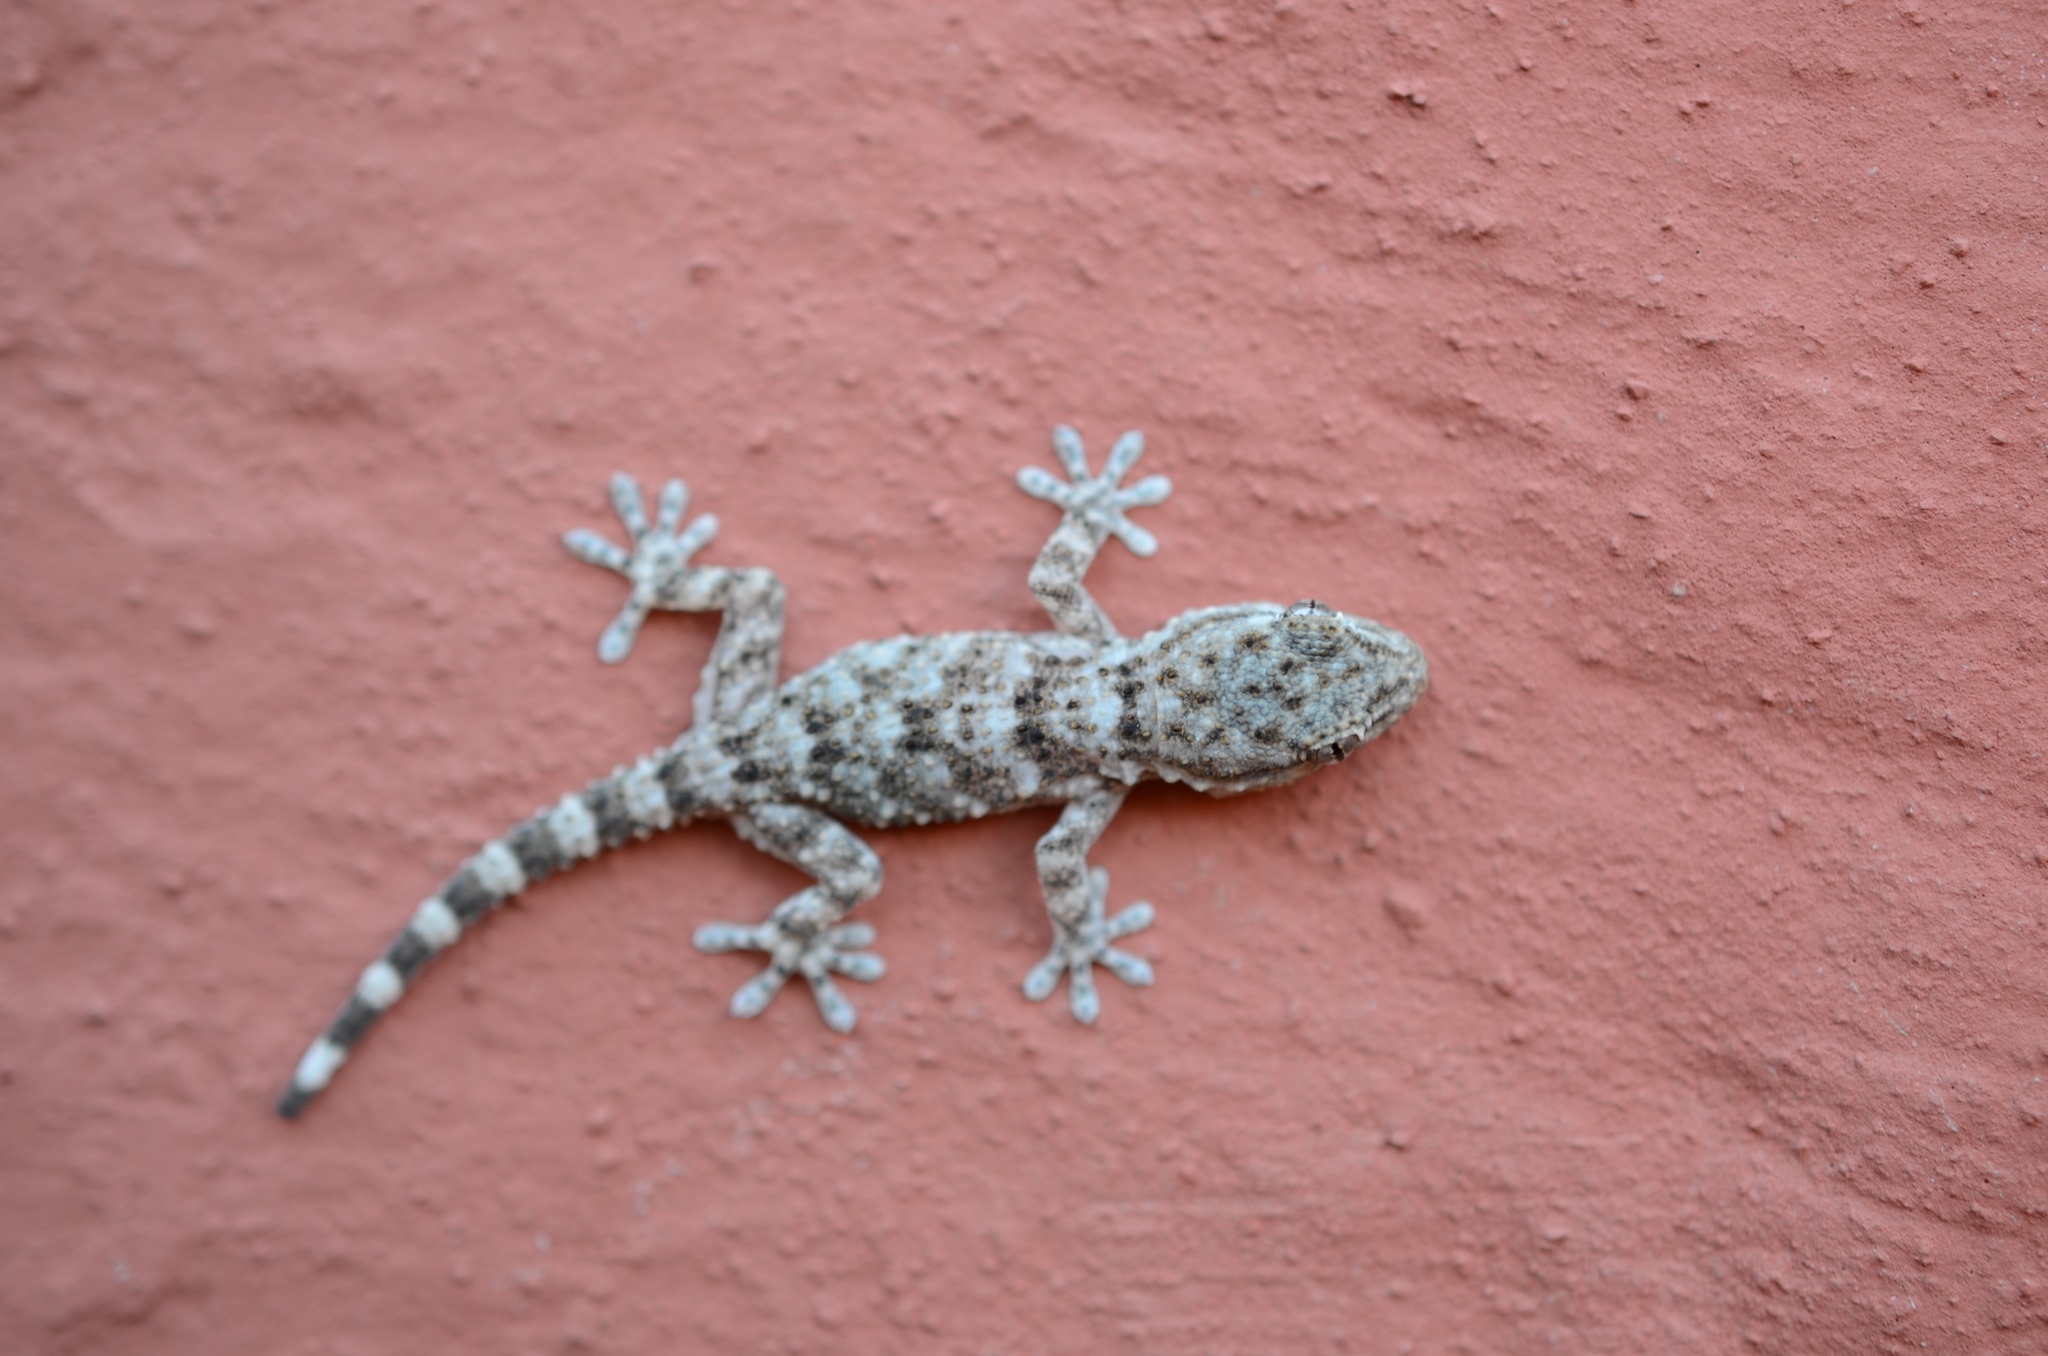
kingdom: Animalia
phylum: Chordata
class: Squamata
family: Phyllodactylidae
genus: Tarentola
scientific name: Tarentola mauritanica
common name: Moorish gecko
